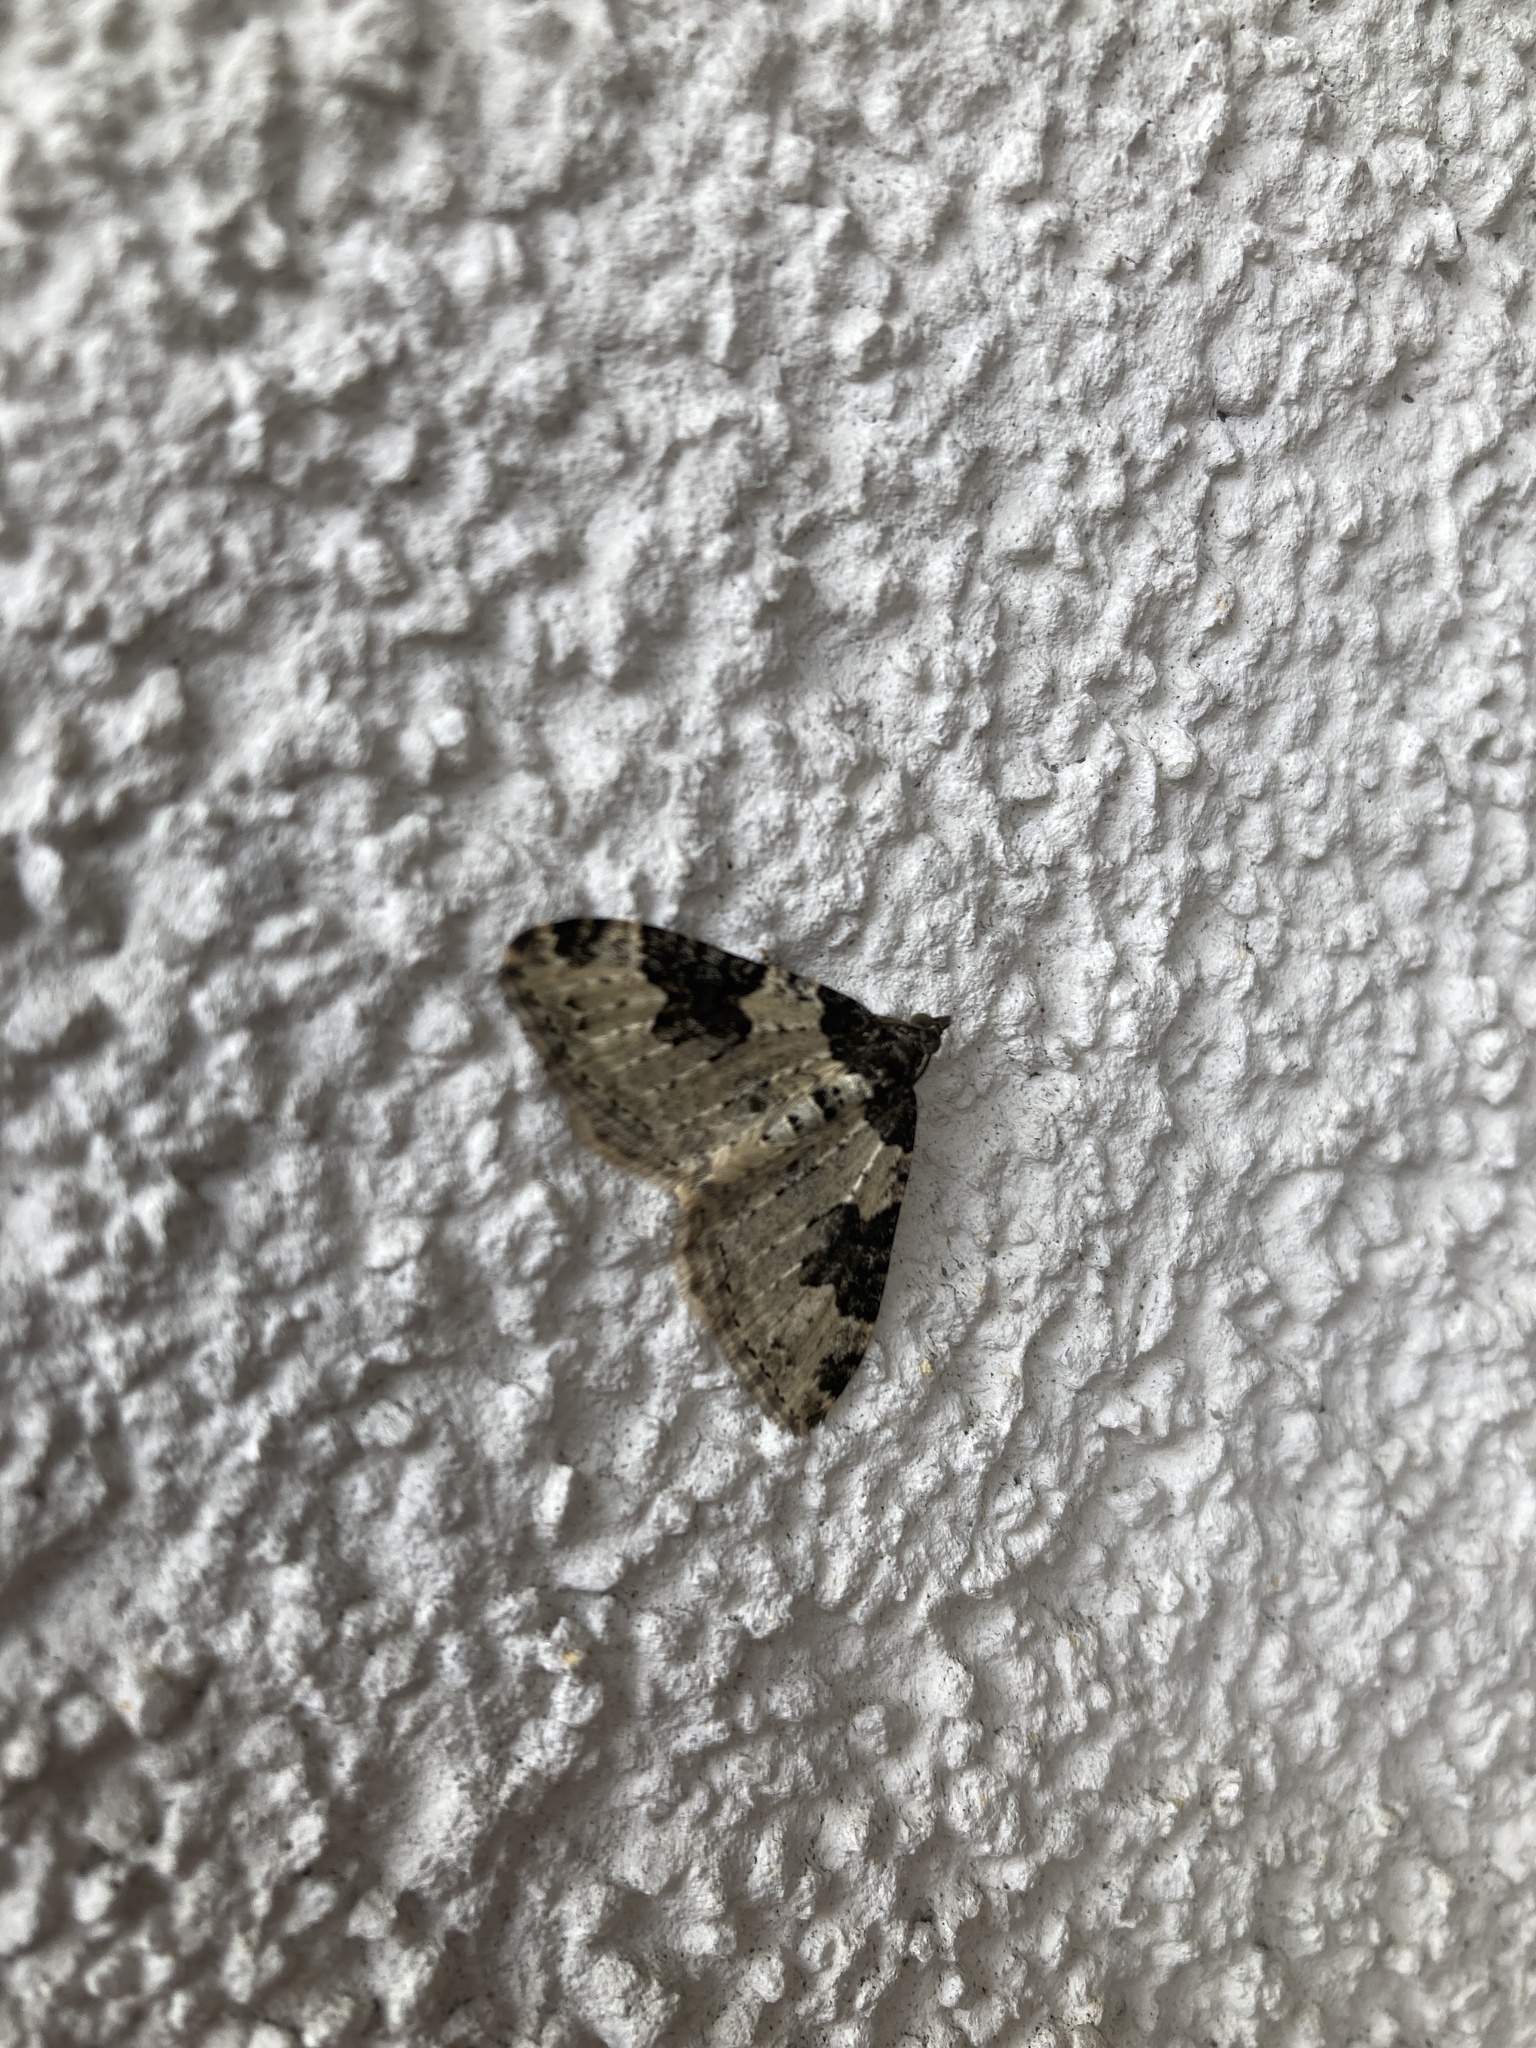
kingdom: Animalia
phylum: Arthropoda
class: Insecta
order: Lepidoptera
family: Geometridae
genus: Xanthorhoe
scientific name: Xanthorhoe fluctuata
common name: Garden carpet
